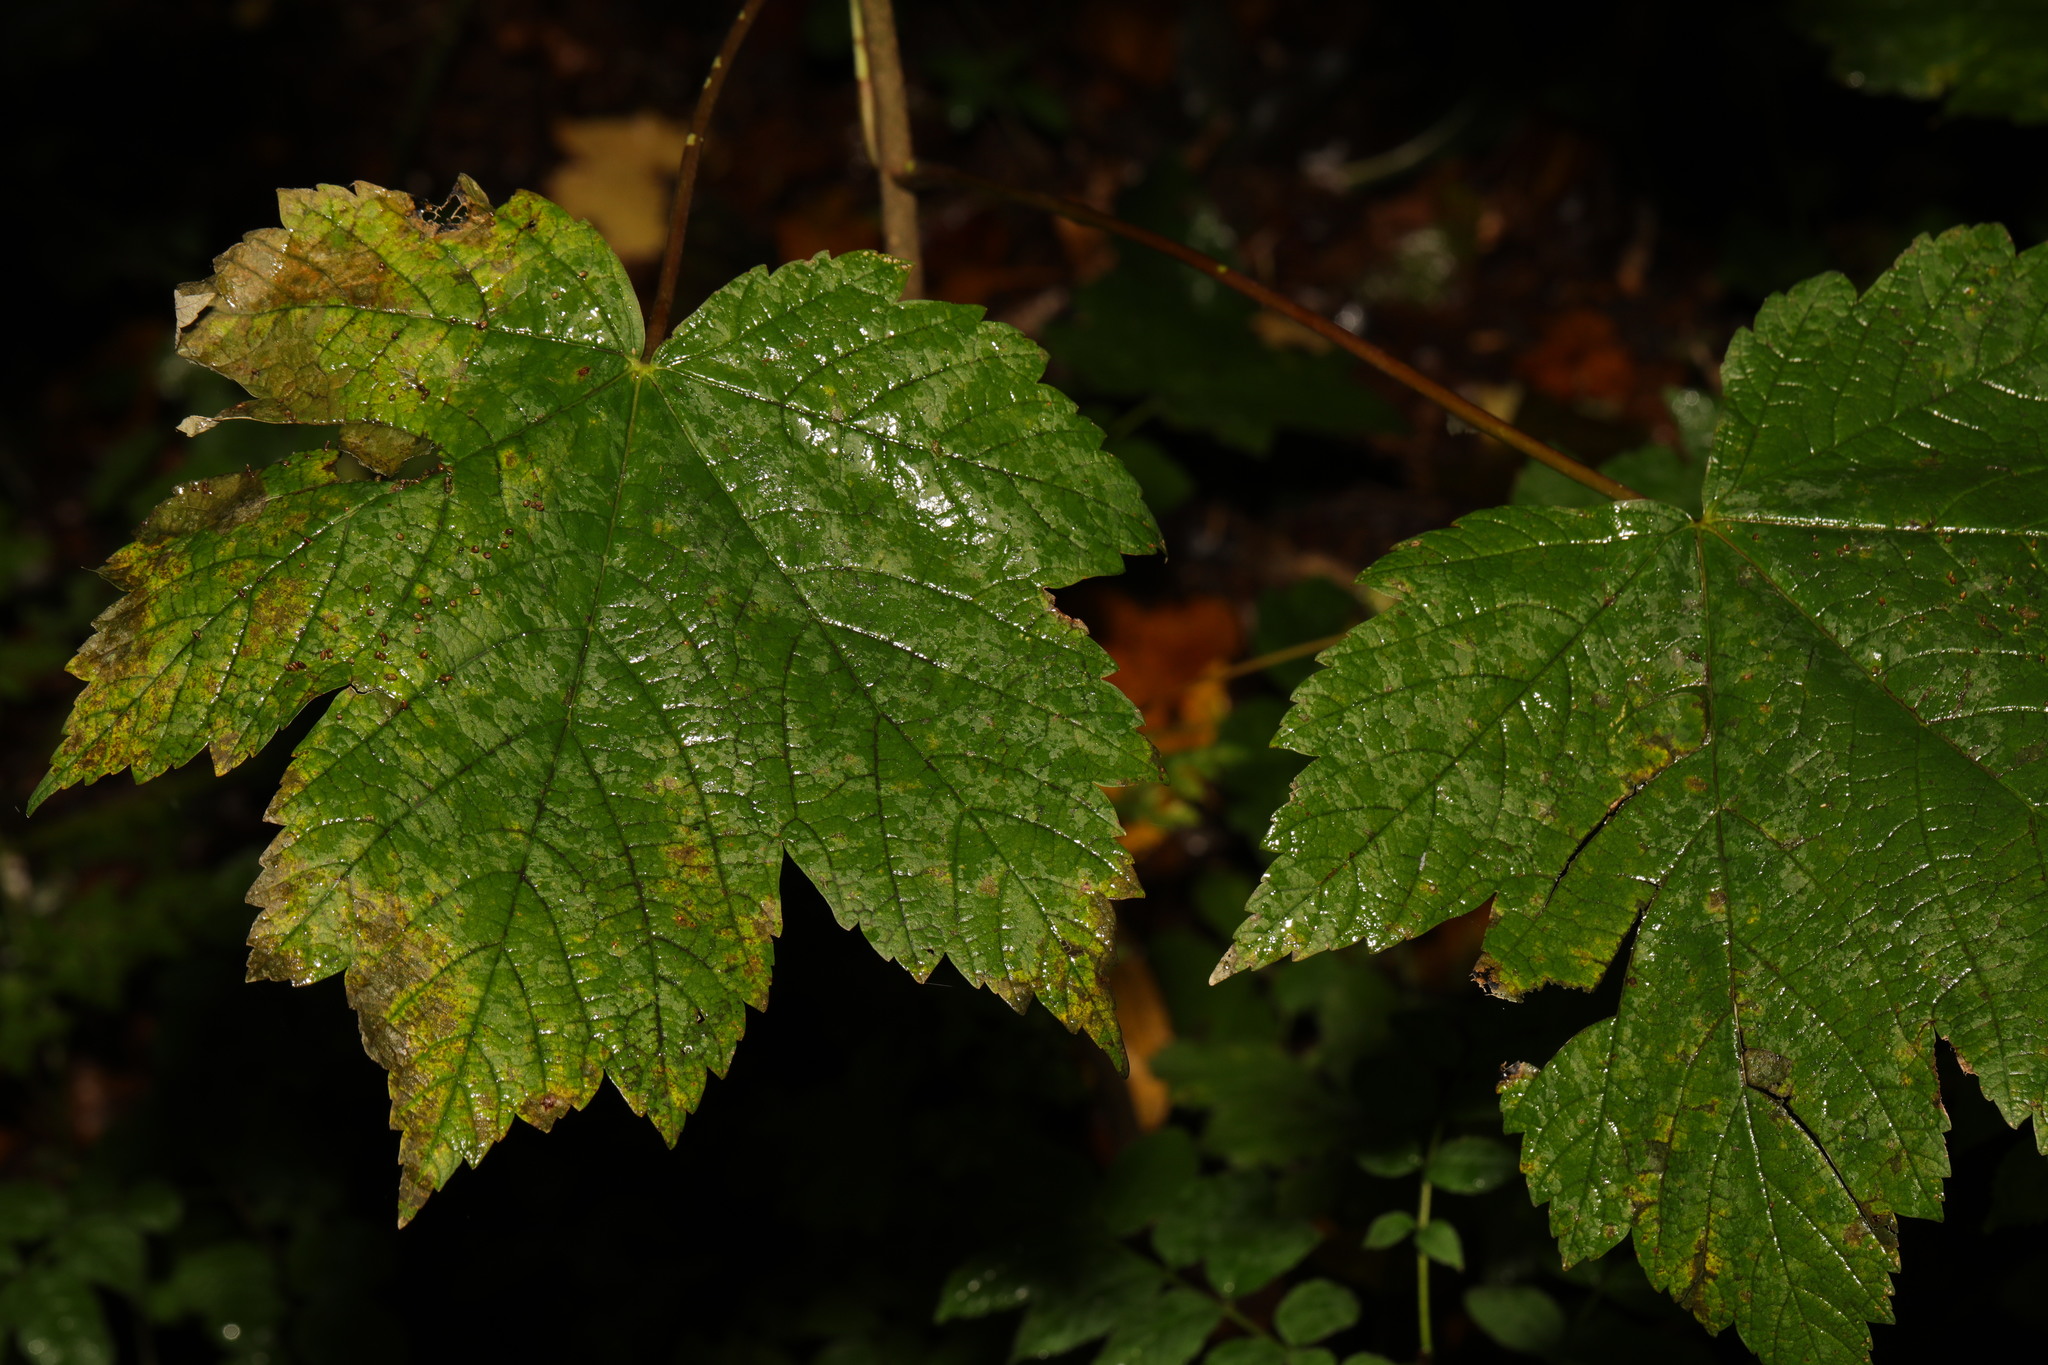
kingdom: Plantae
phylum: Tracheophyta
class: Magnoliopsida
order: Sapindales
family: Sapindaceae
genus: Acer
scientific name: Acer pseudoplatanus
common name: Sycamore
